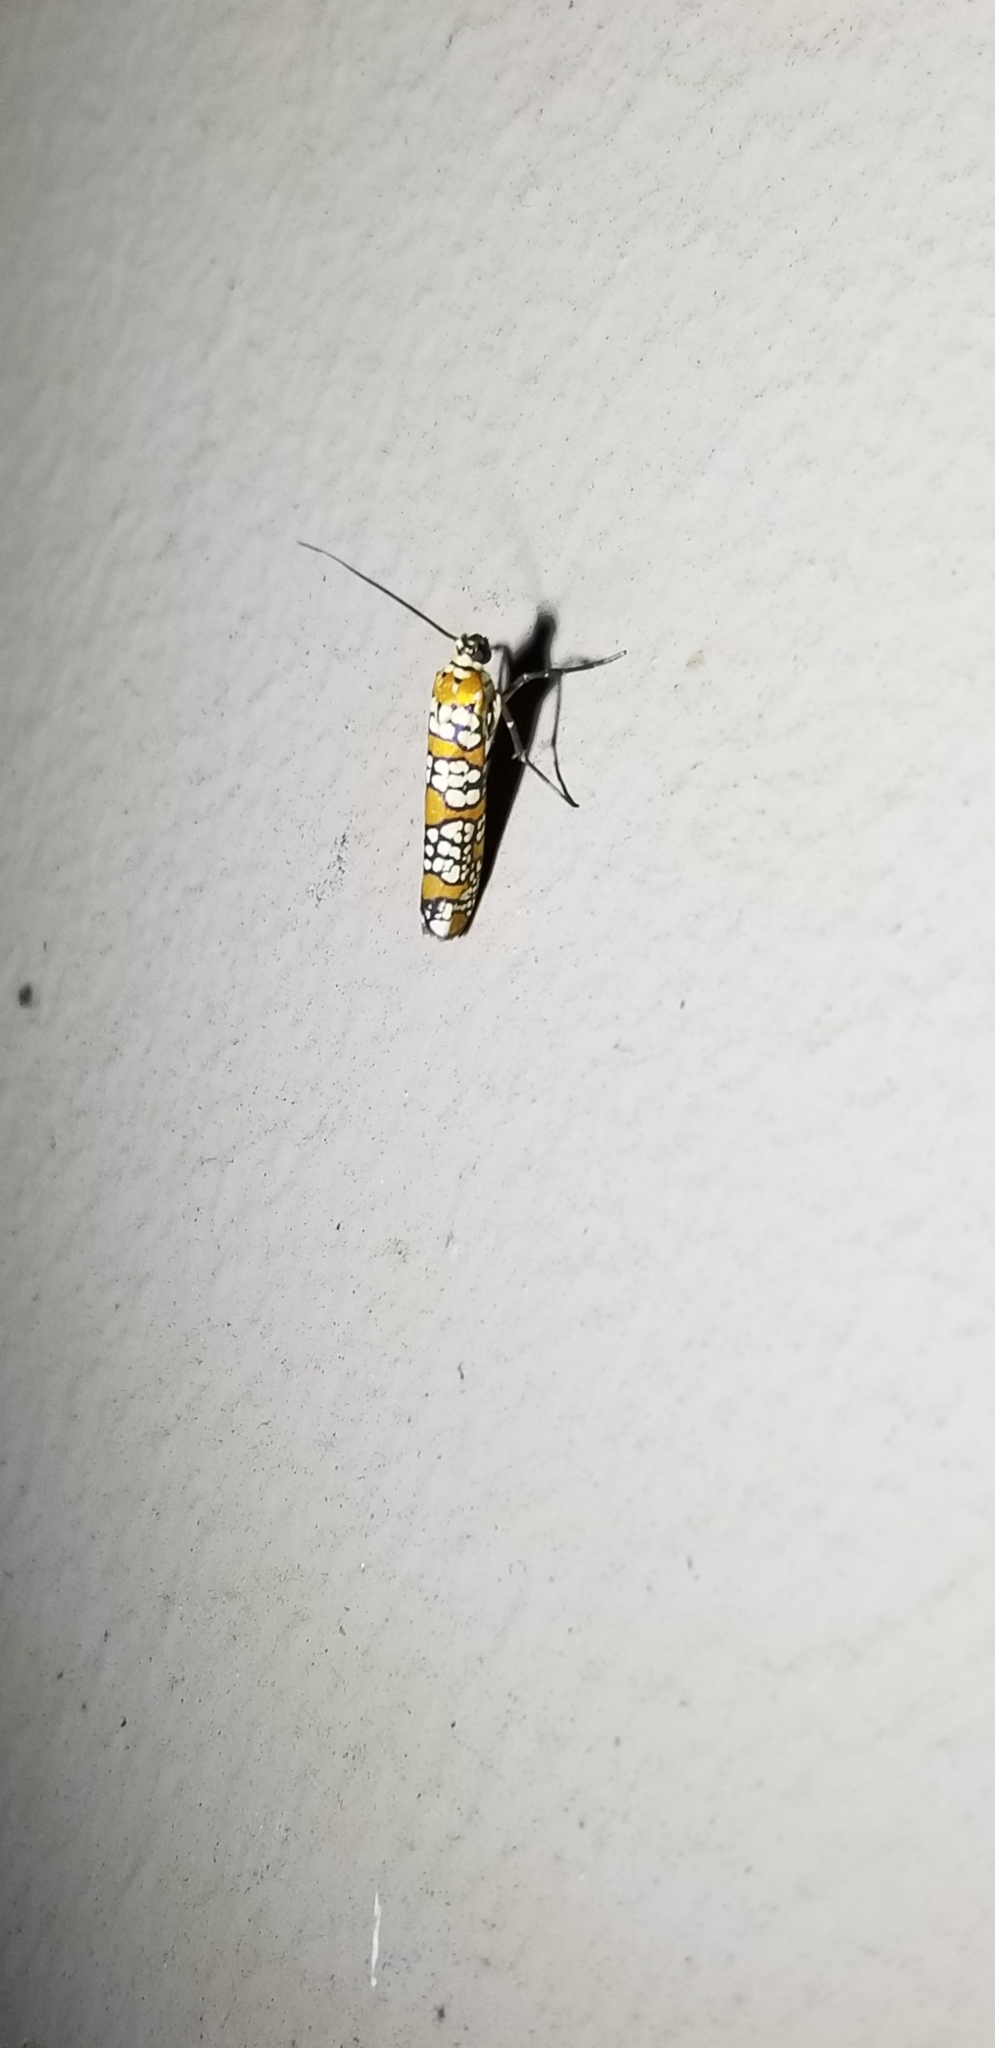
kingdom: Animalia
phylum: Arthropoda
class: Insecta
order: Lepidoptera
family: Attevidae
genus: Atteva
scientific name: Atteva punctella
